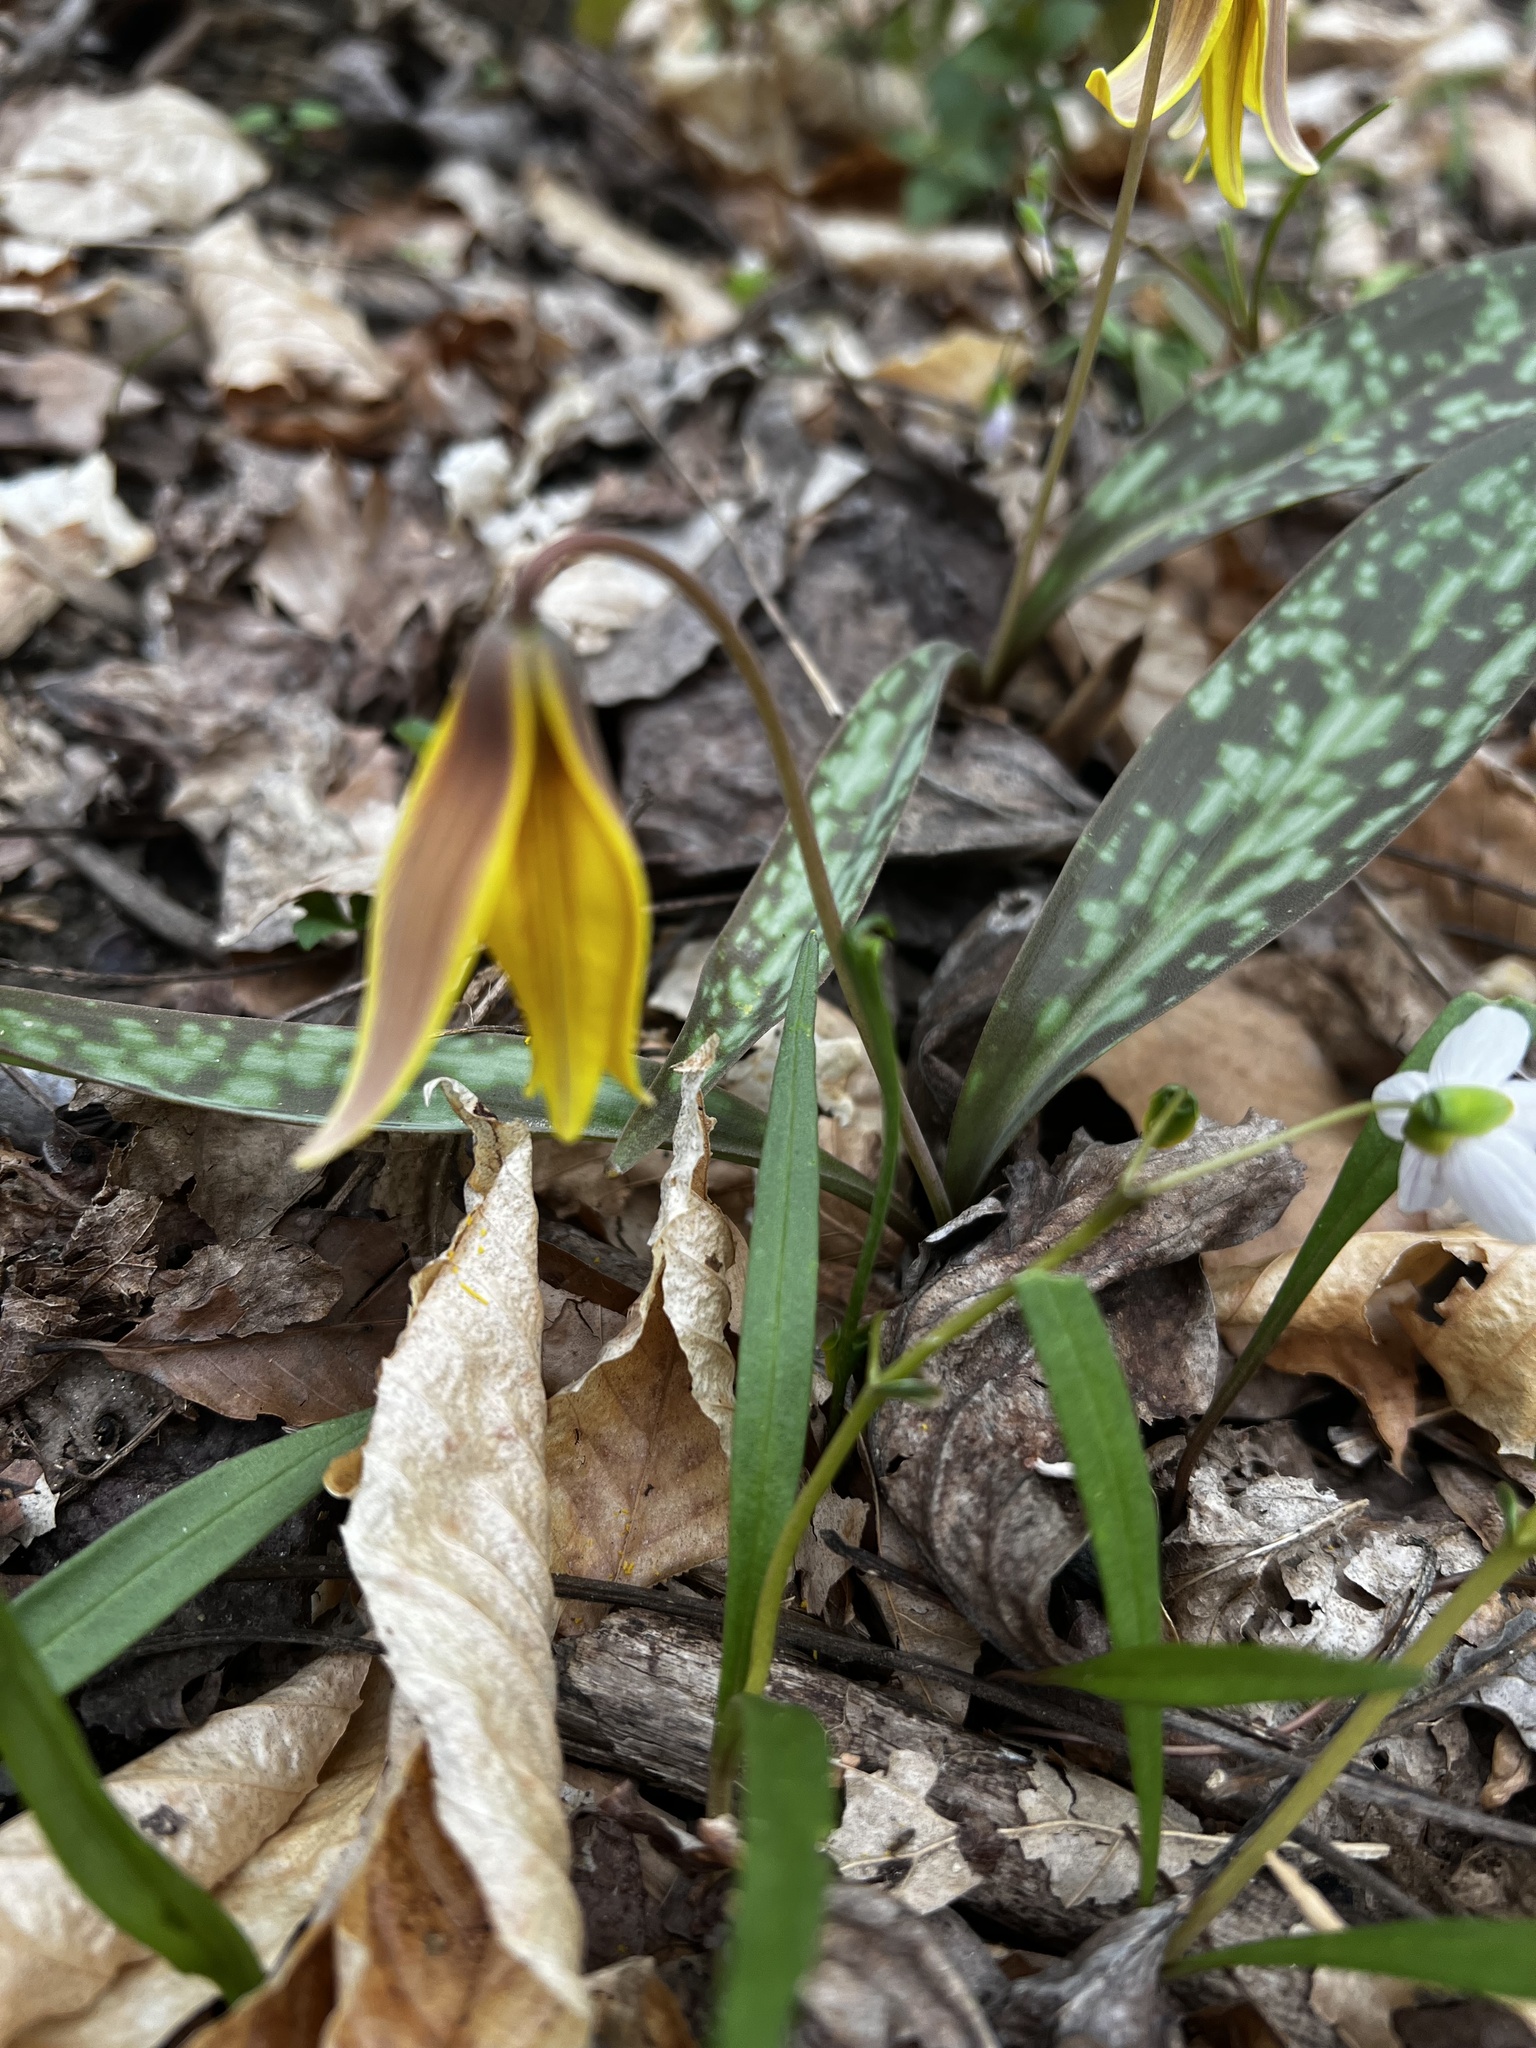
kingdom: Plantae
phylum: Tracheophyta
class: Liliopsida
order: Liliales
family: Liliaceae
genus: Erythronium
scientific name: Erythronium americanum
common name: Yellow adder's-tongue
